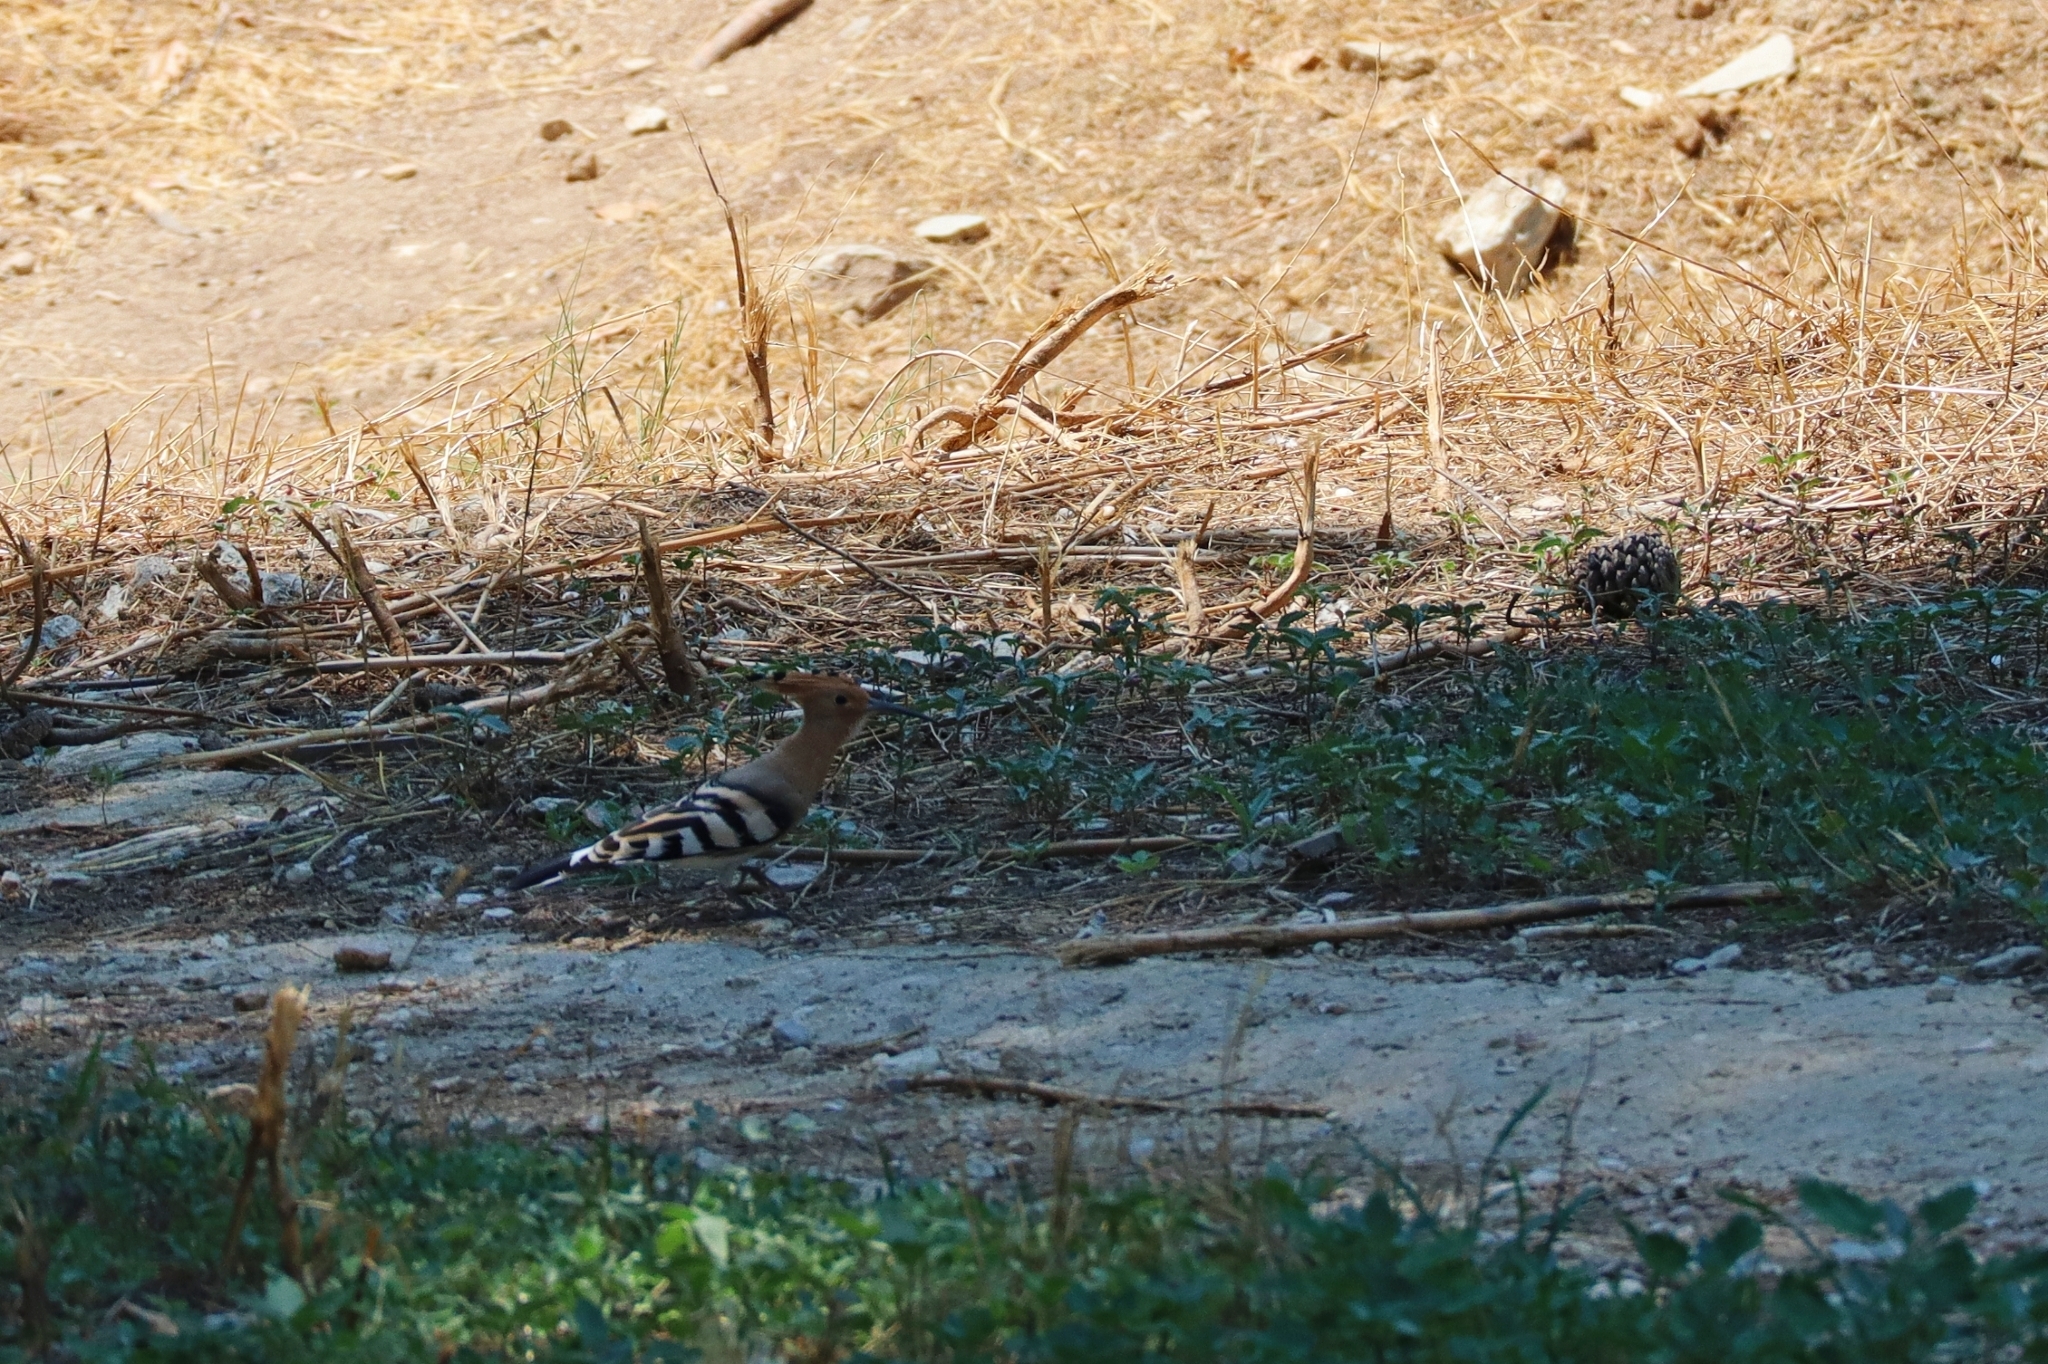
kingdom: Animalia
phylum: Chordata
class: Aves
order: Bucerotiformes
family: Upupidae
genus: Upupa
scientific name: Upupa epops
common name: Eurasian hoopoe
